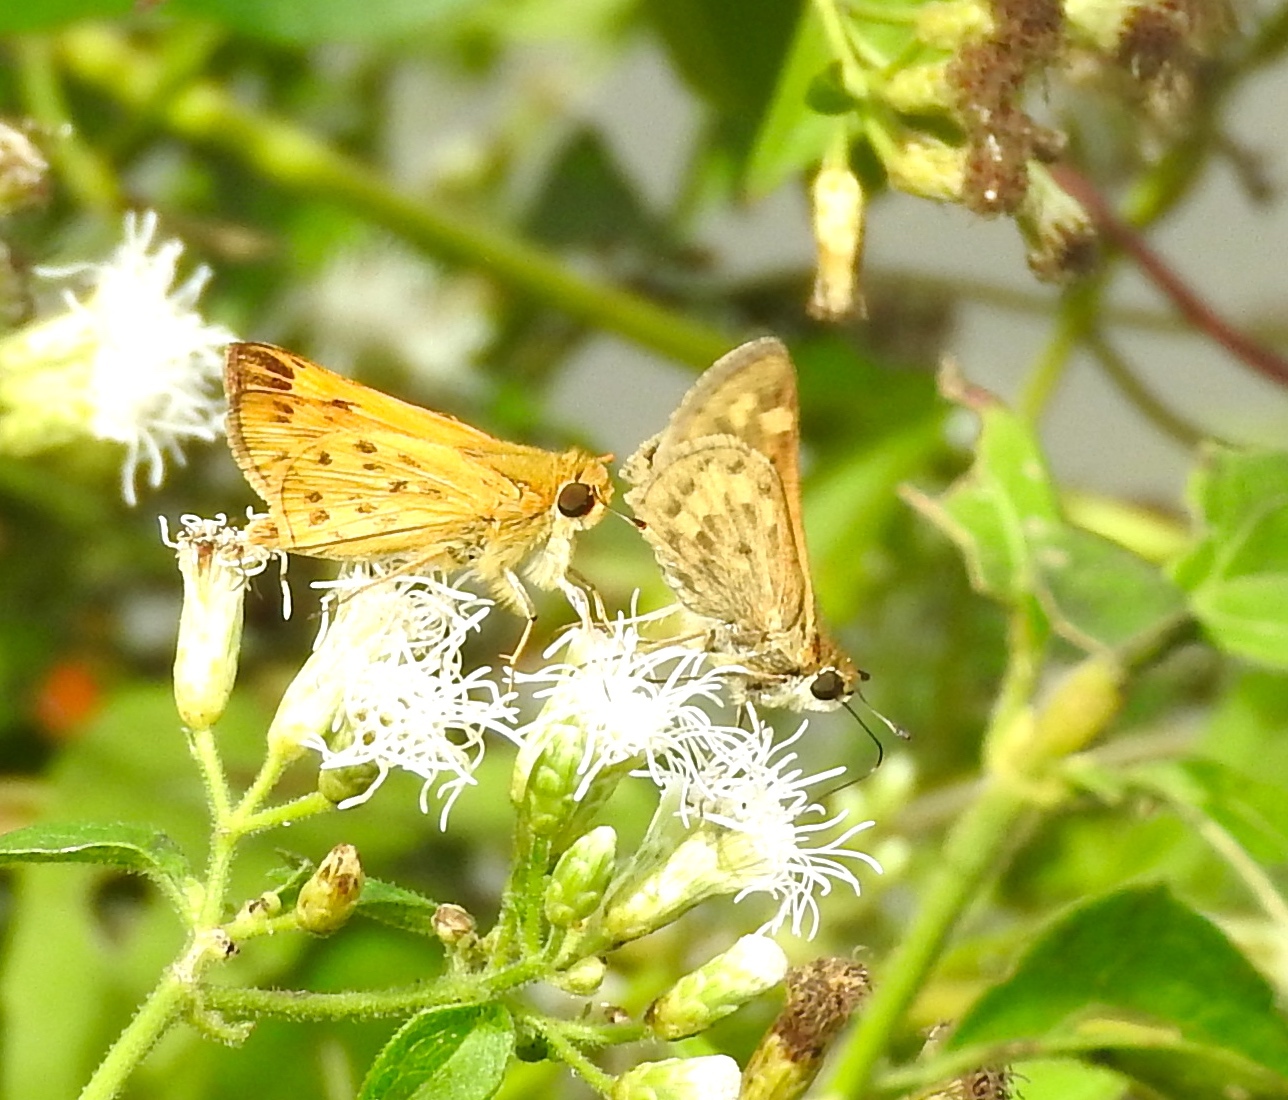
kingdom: Animalia
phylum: Arthropoda
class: Insecta
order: Lepidoptera
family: Hesperiidae
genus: Hylephila
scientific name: Hylephila phyleus
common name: Fiery skipper
